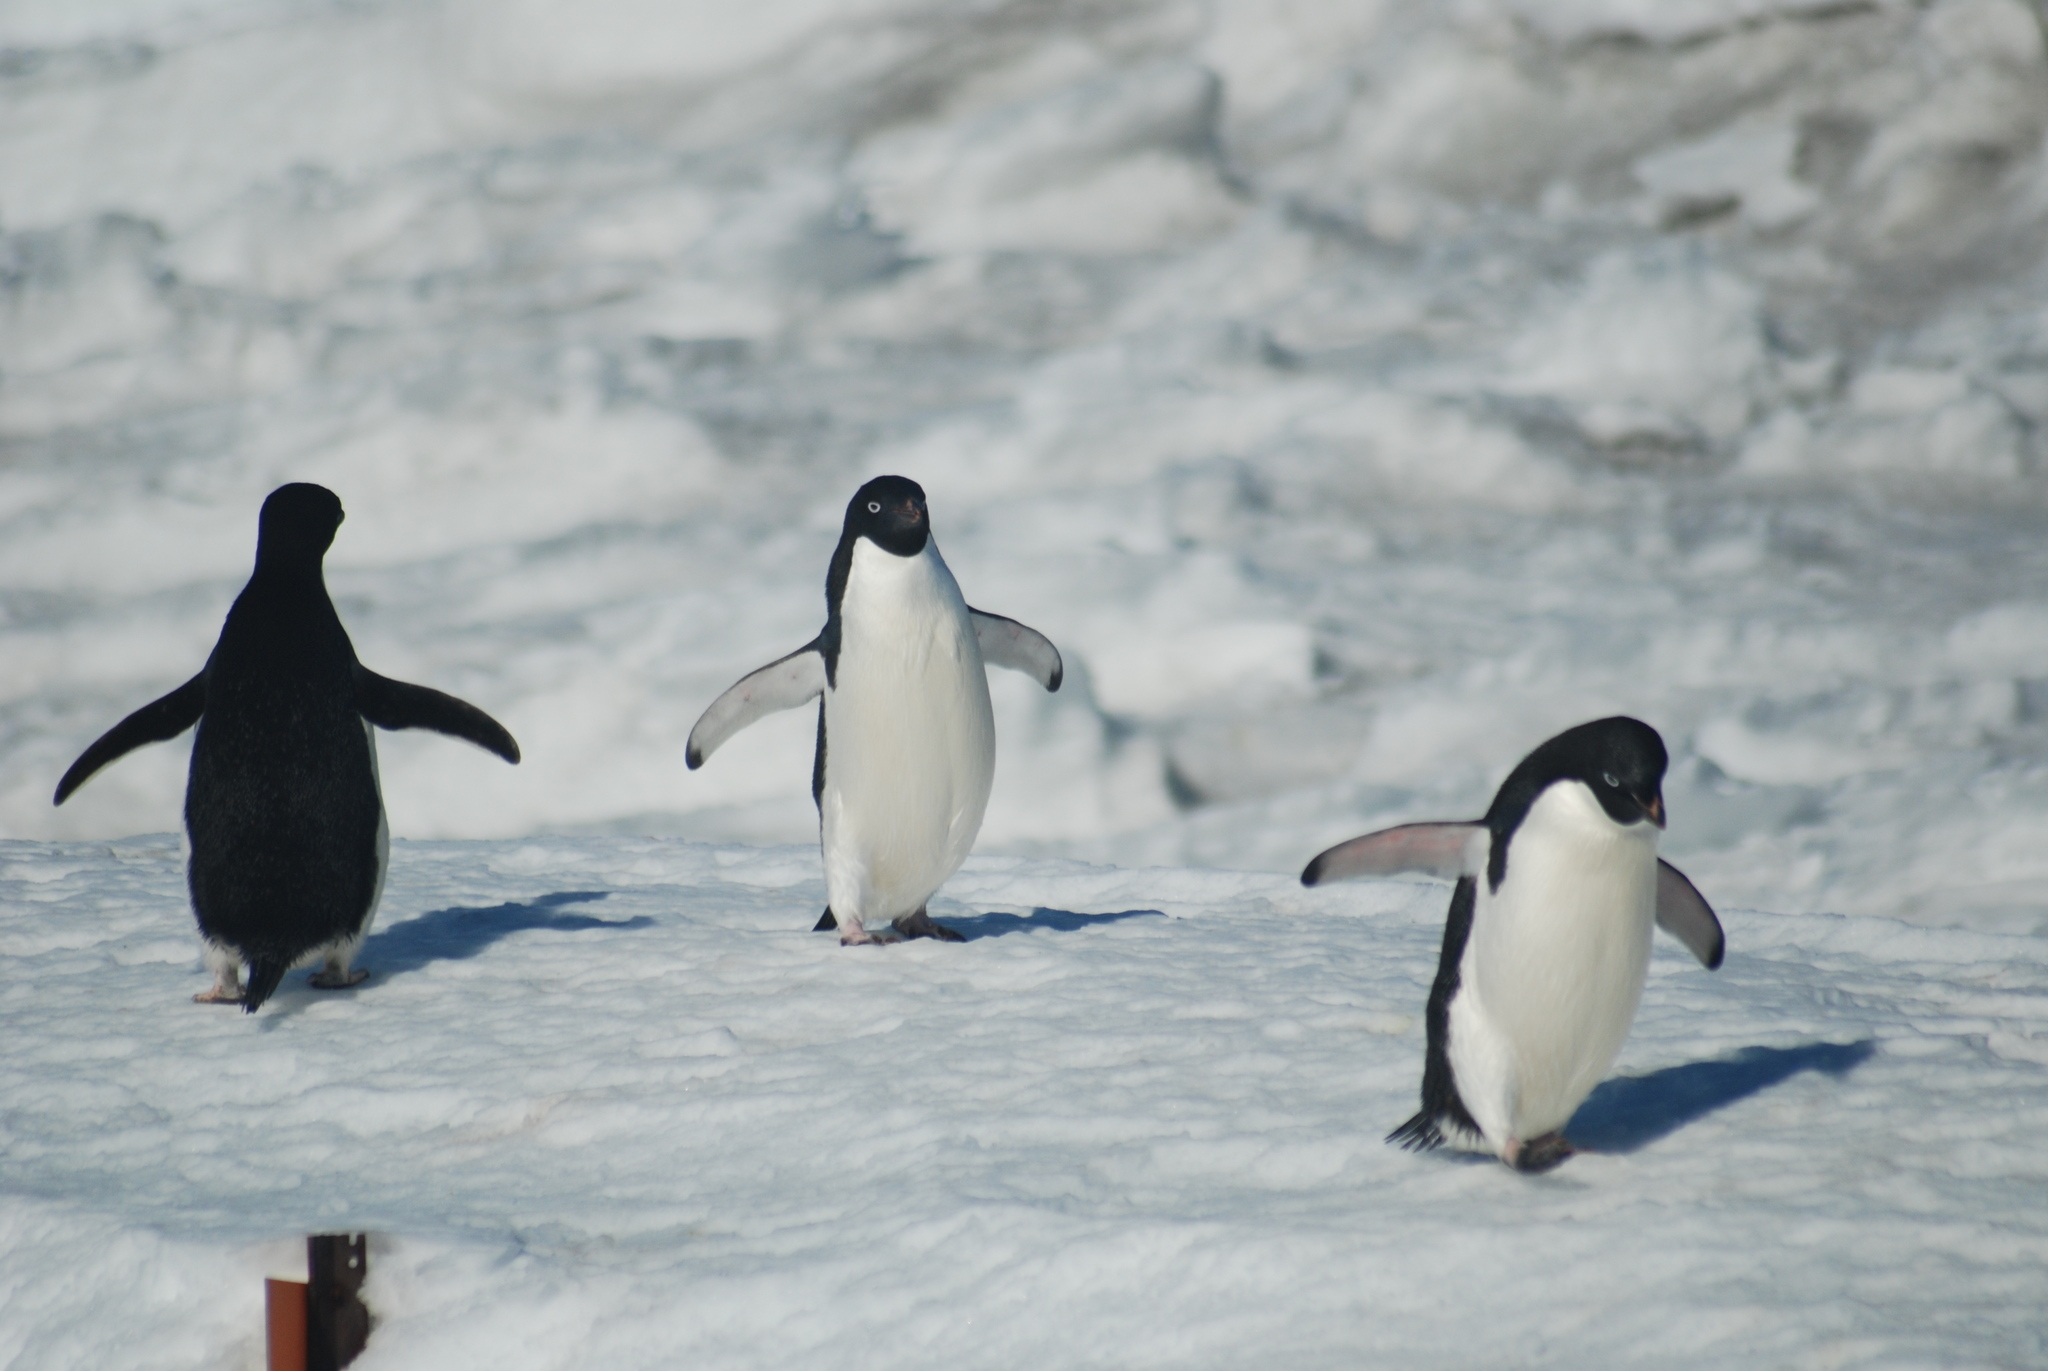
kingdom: Animalia
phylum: Chordata
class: Aves
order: Sphenisciformes
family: Spheniscidae
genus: Pygoscelis
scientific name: Pygoscelis adeliae
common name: Adelie penguin
